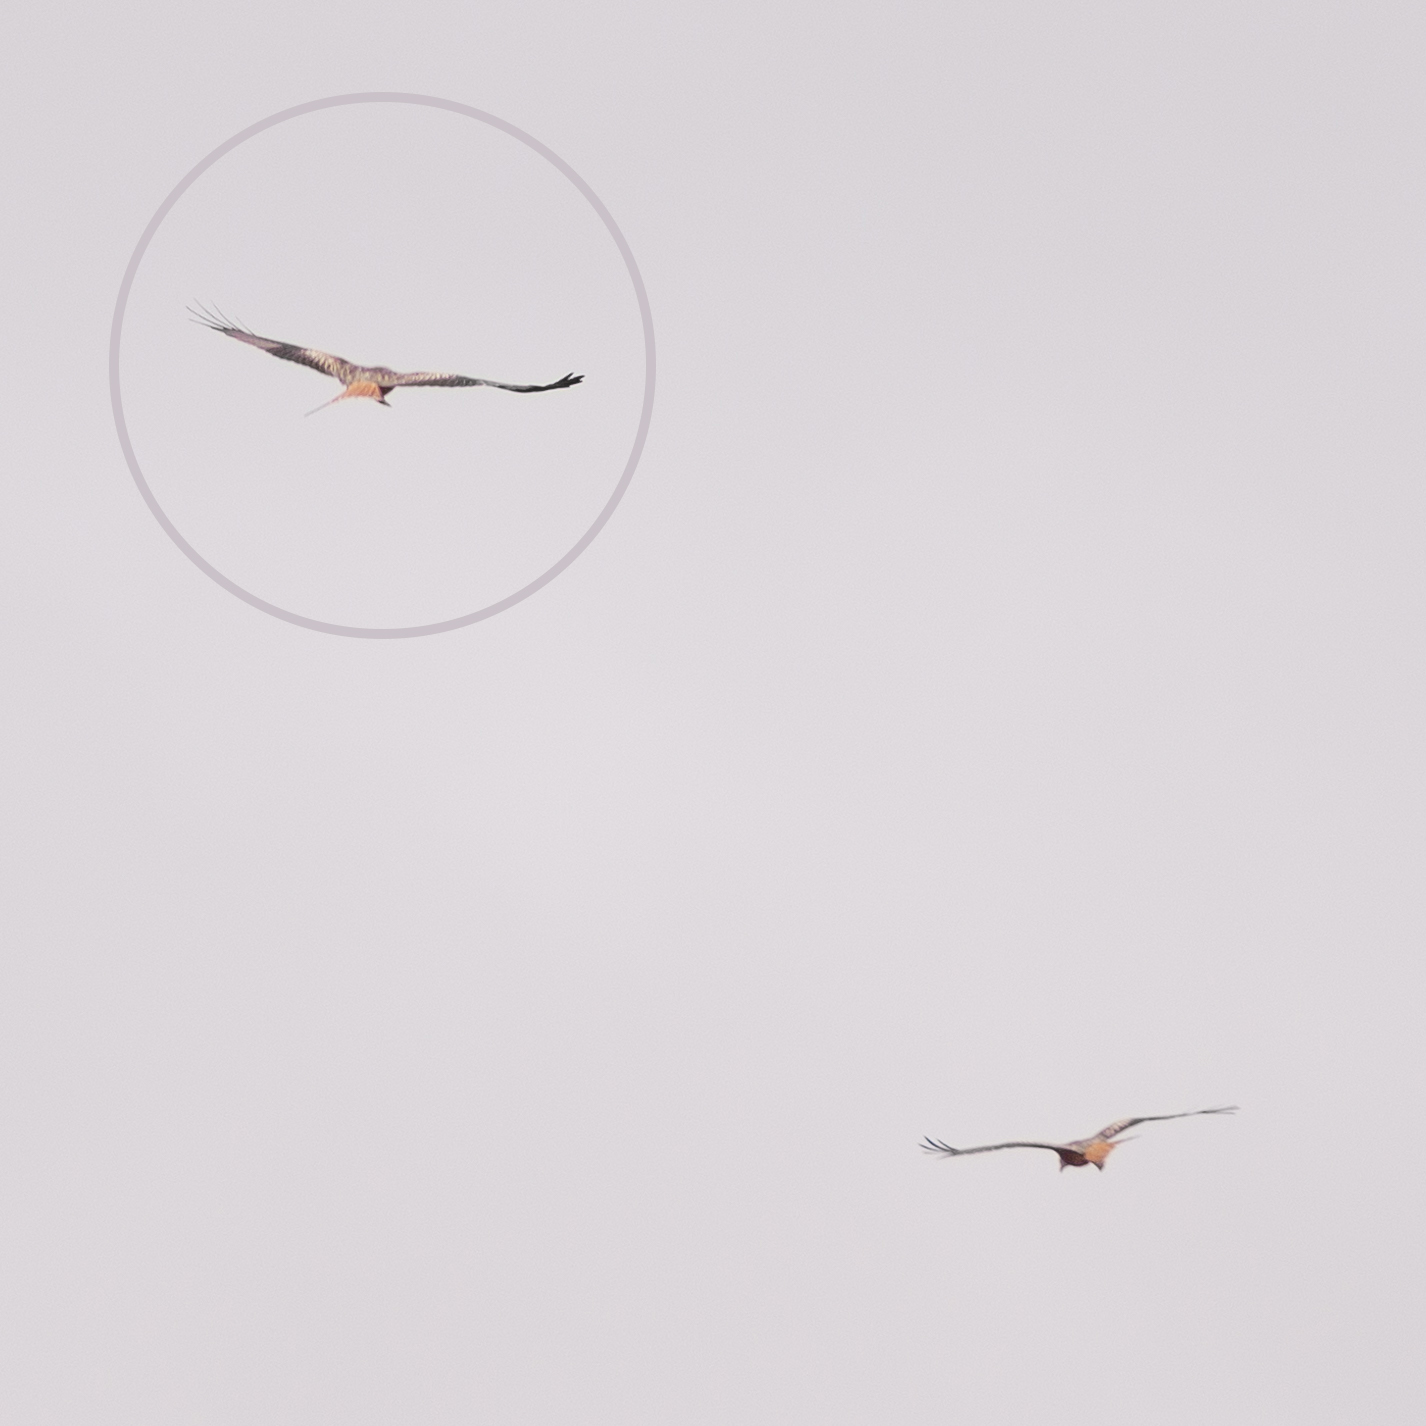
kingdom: Animalia
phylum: Chordata
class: Aves
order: Accipitriformes
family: Accipitridae
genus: Milvus
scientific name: Milvus milvus
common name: Red kite
